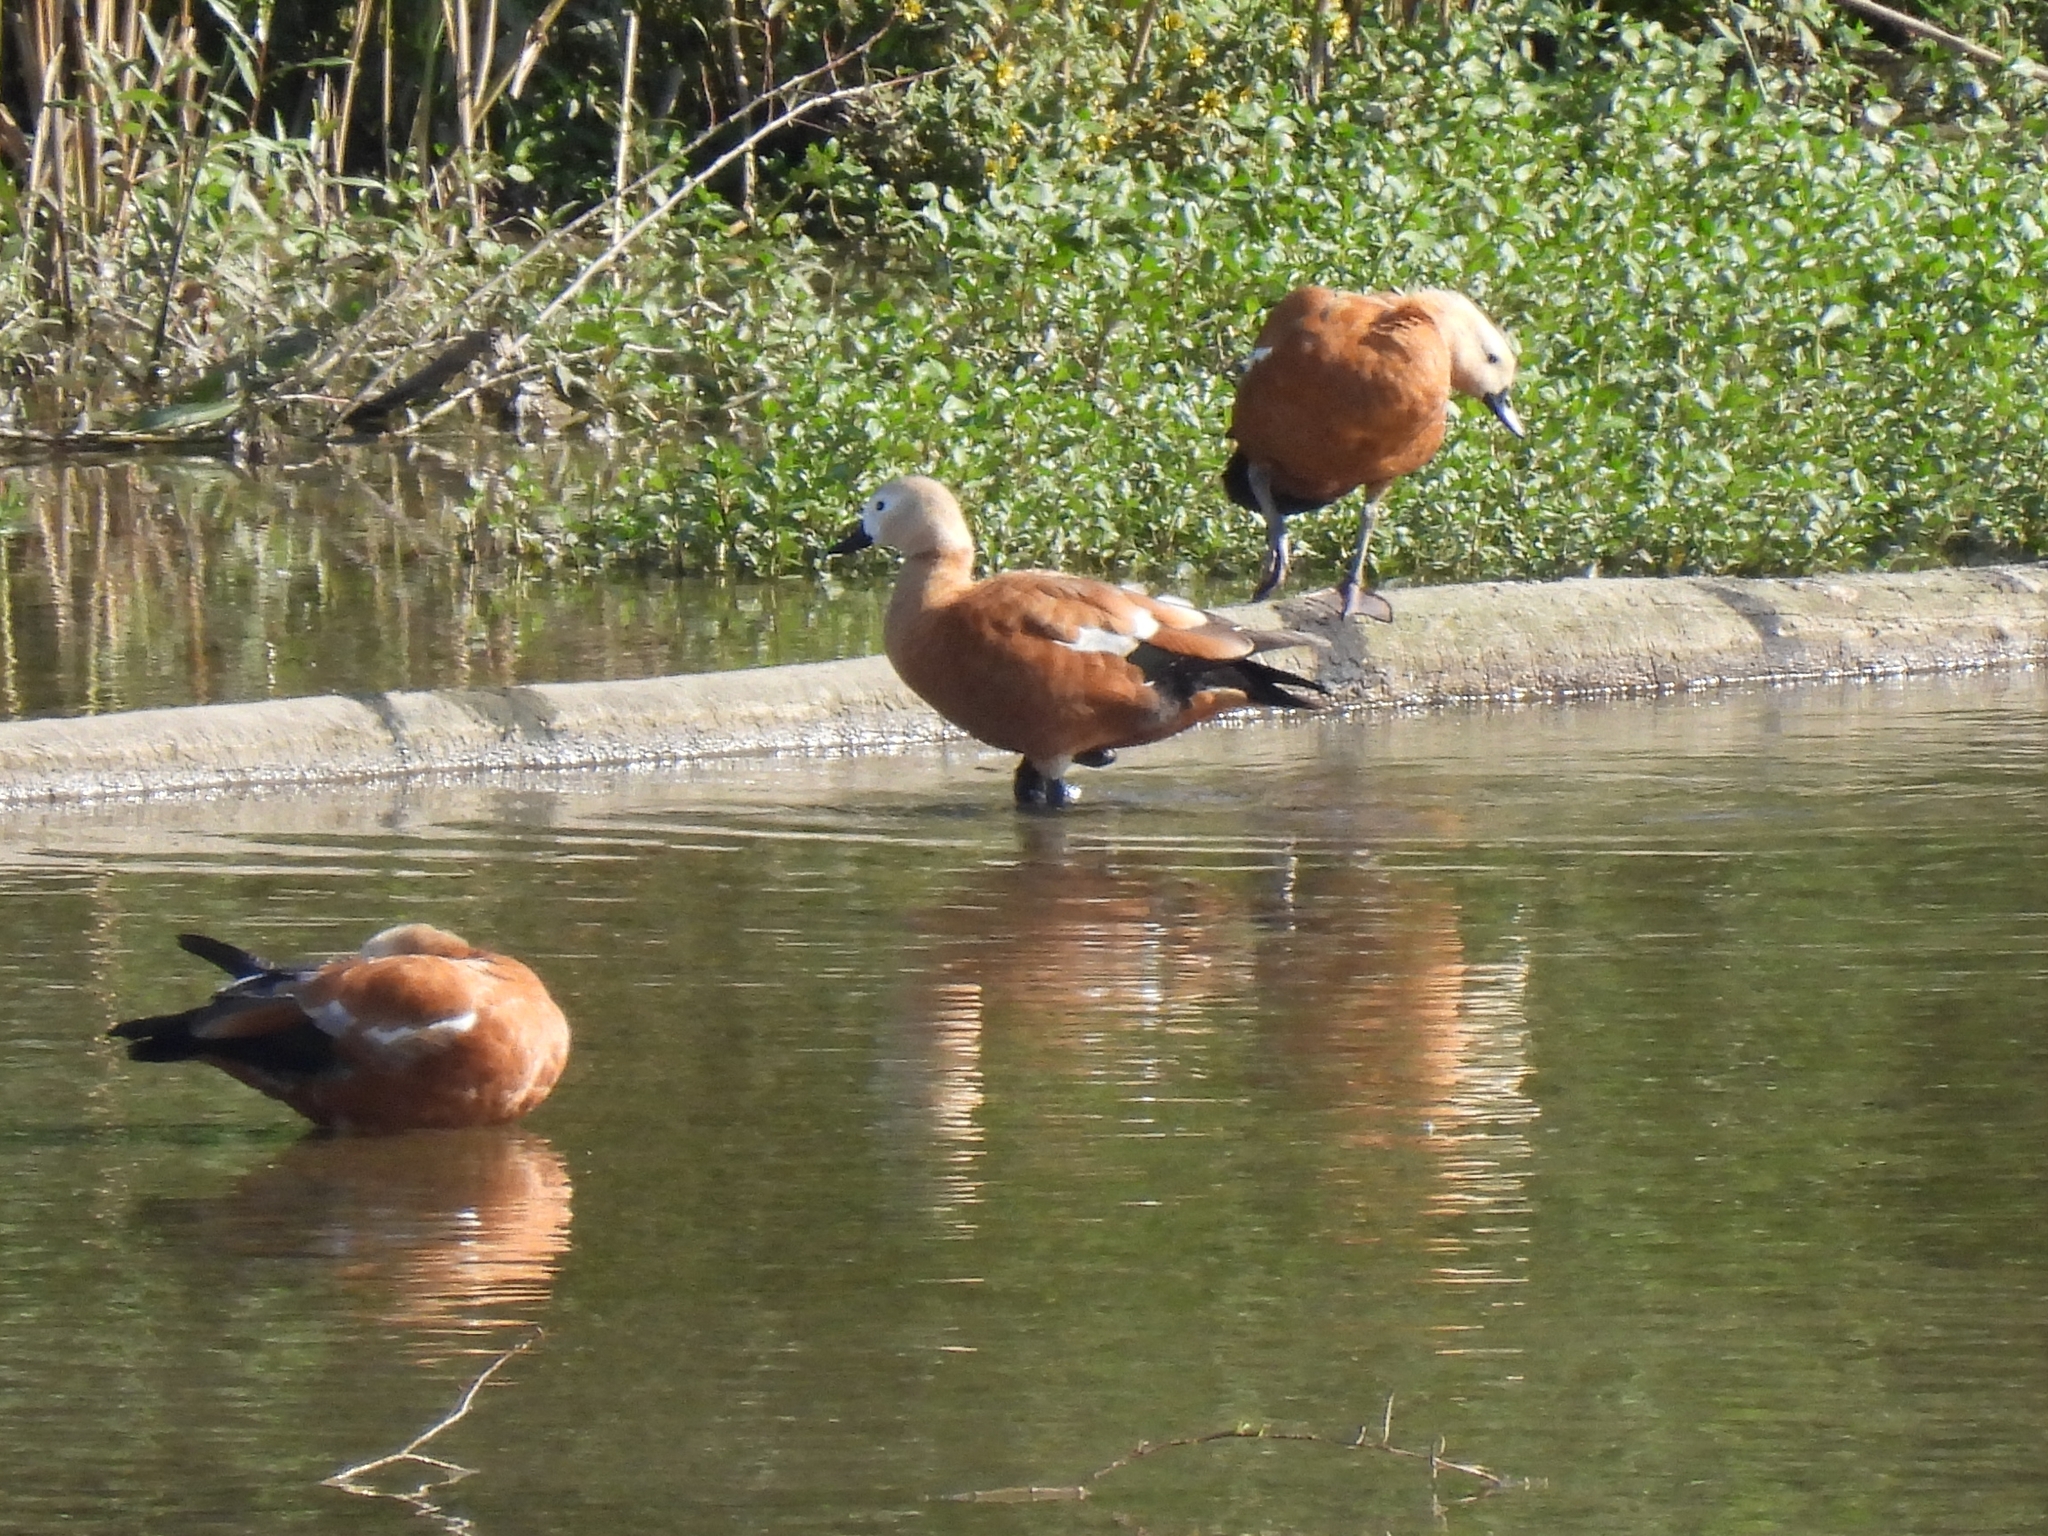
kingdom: Animalia
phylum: Chordata
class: Aves
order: Anseriformes
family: Anatidae
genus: Tadorna
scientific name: Tadorna ferruginea
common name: Ruddy shelduck
